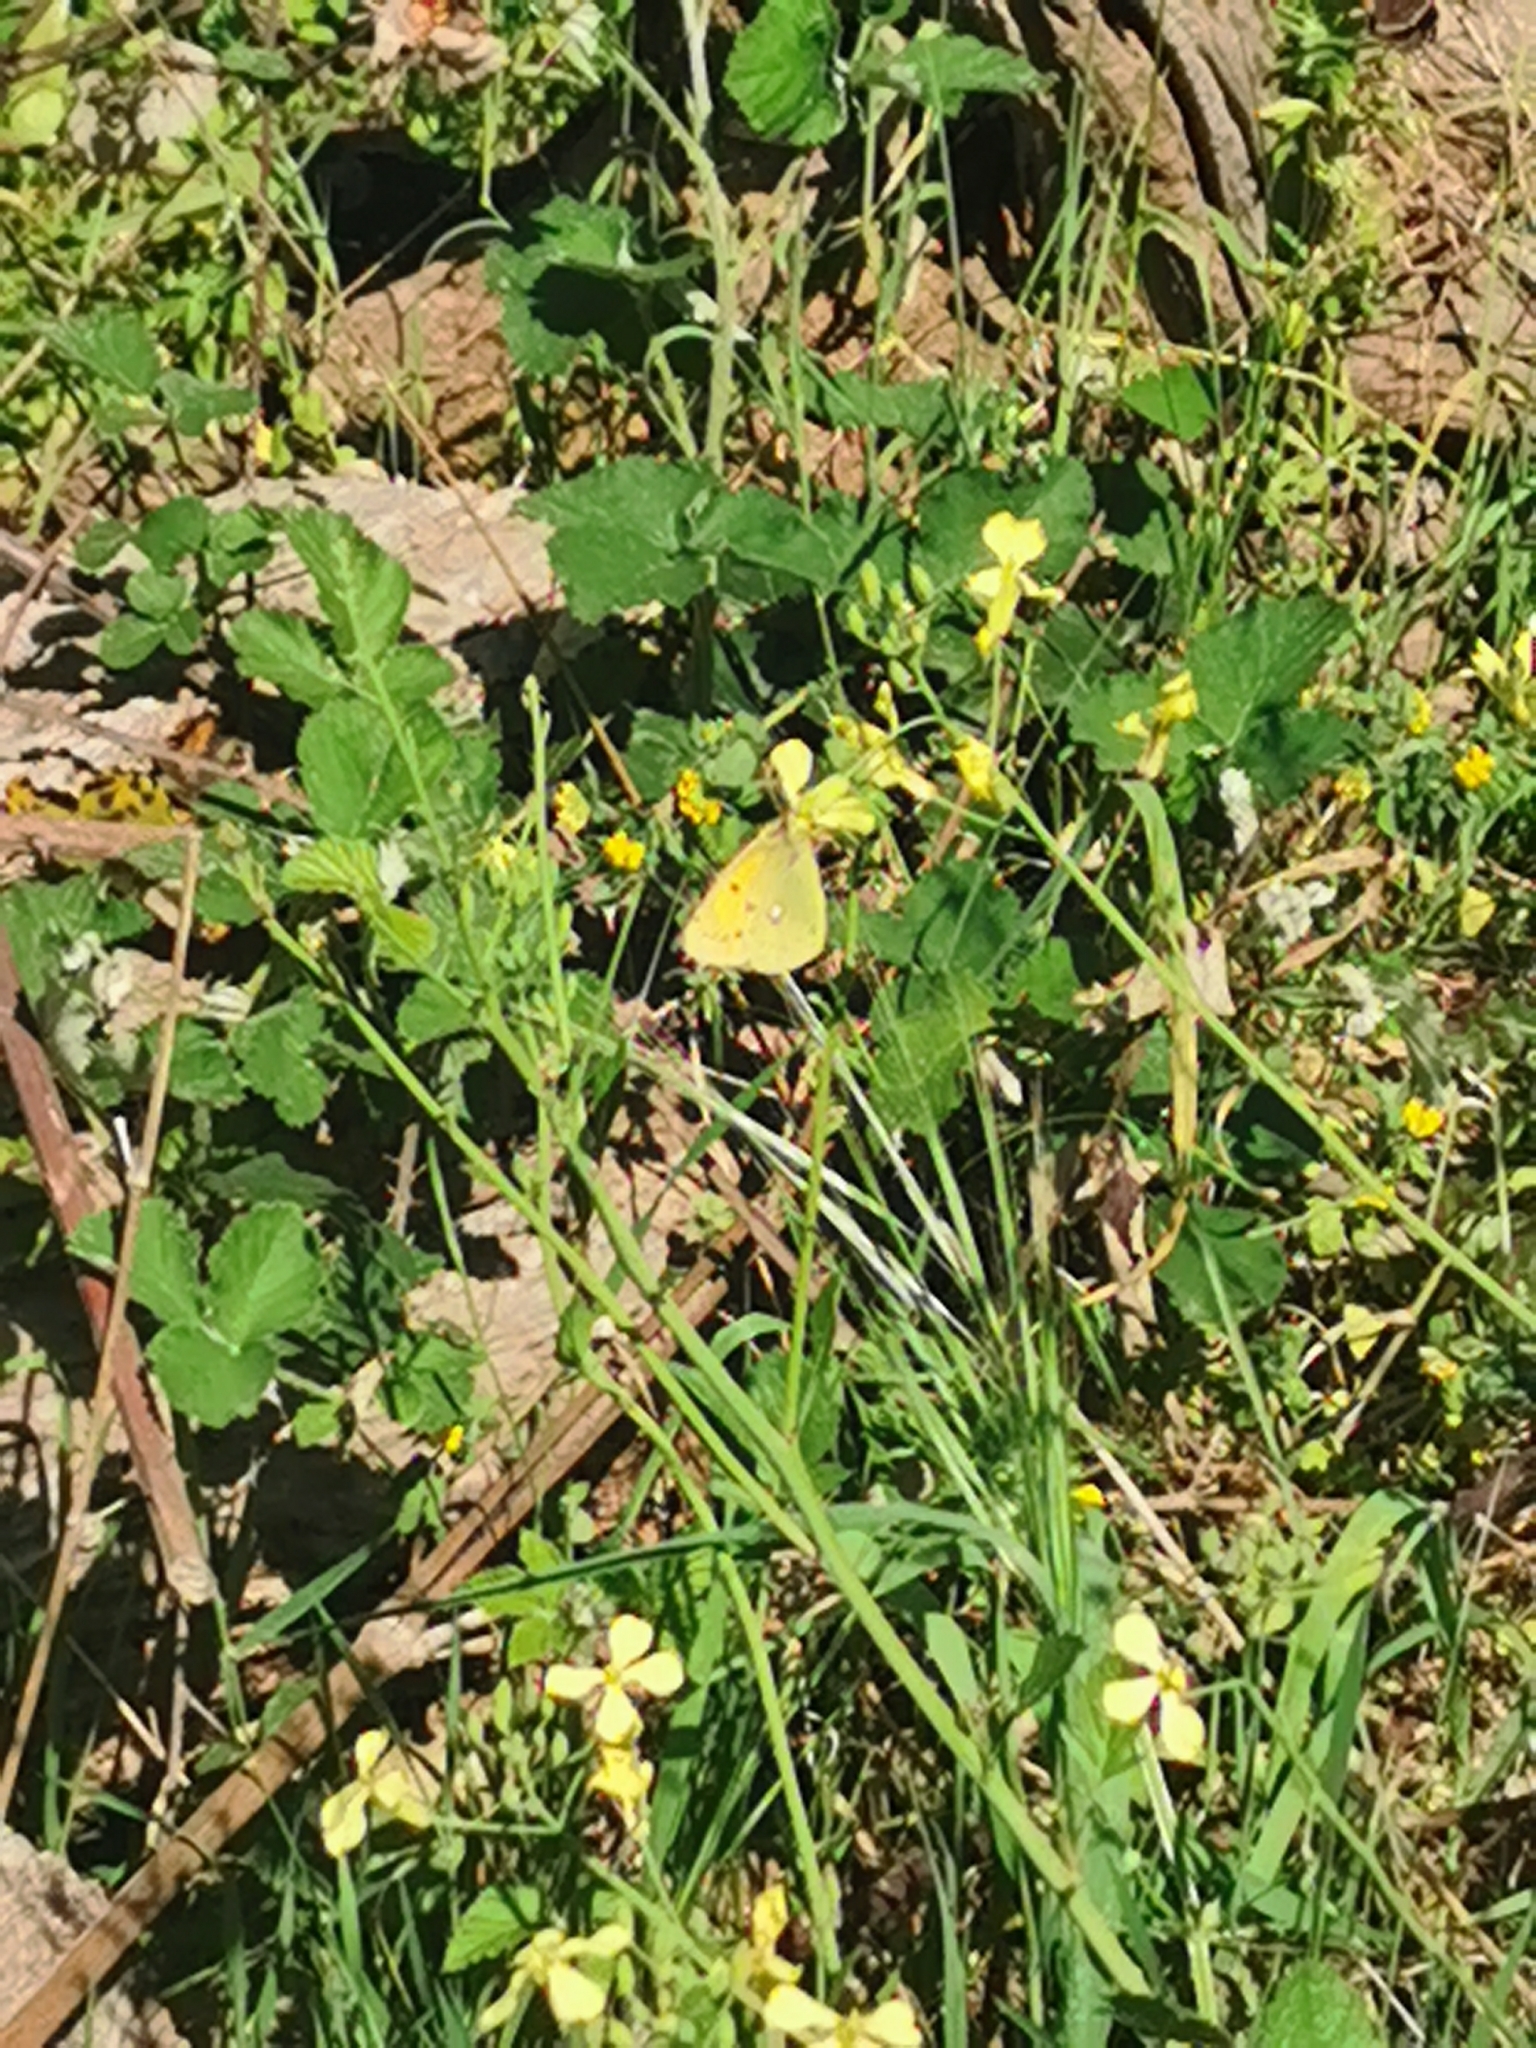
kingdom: Animalia
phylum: Arthropoda
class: Insecta
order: Lepidoptera
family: Pieridae
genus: Colias
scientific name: Colias croceus
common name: Clouded yellow
